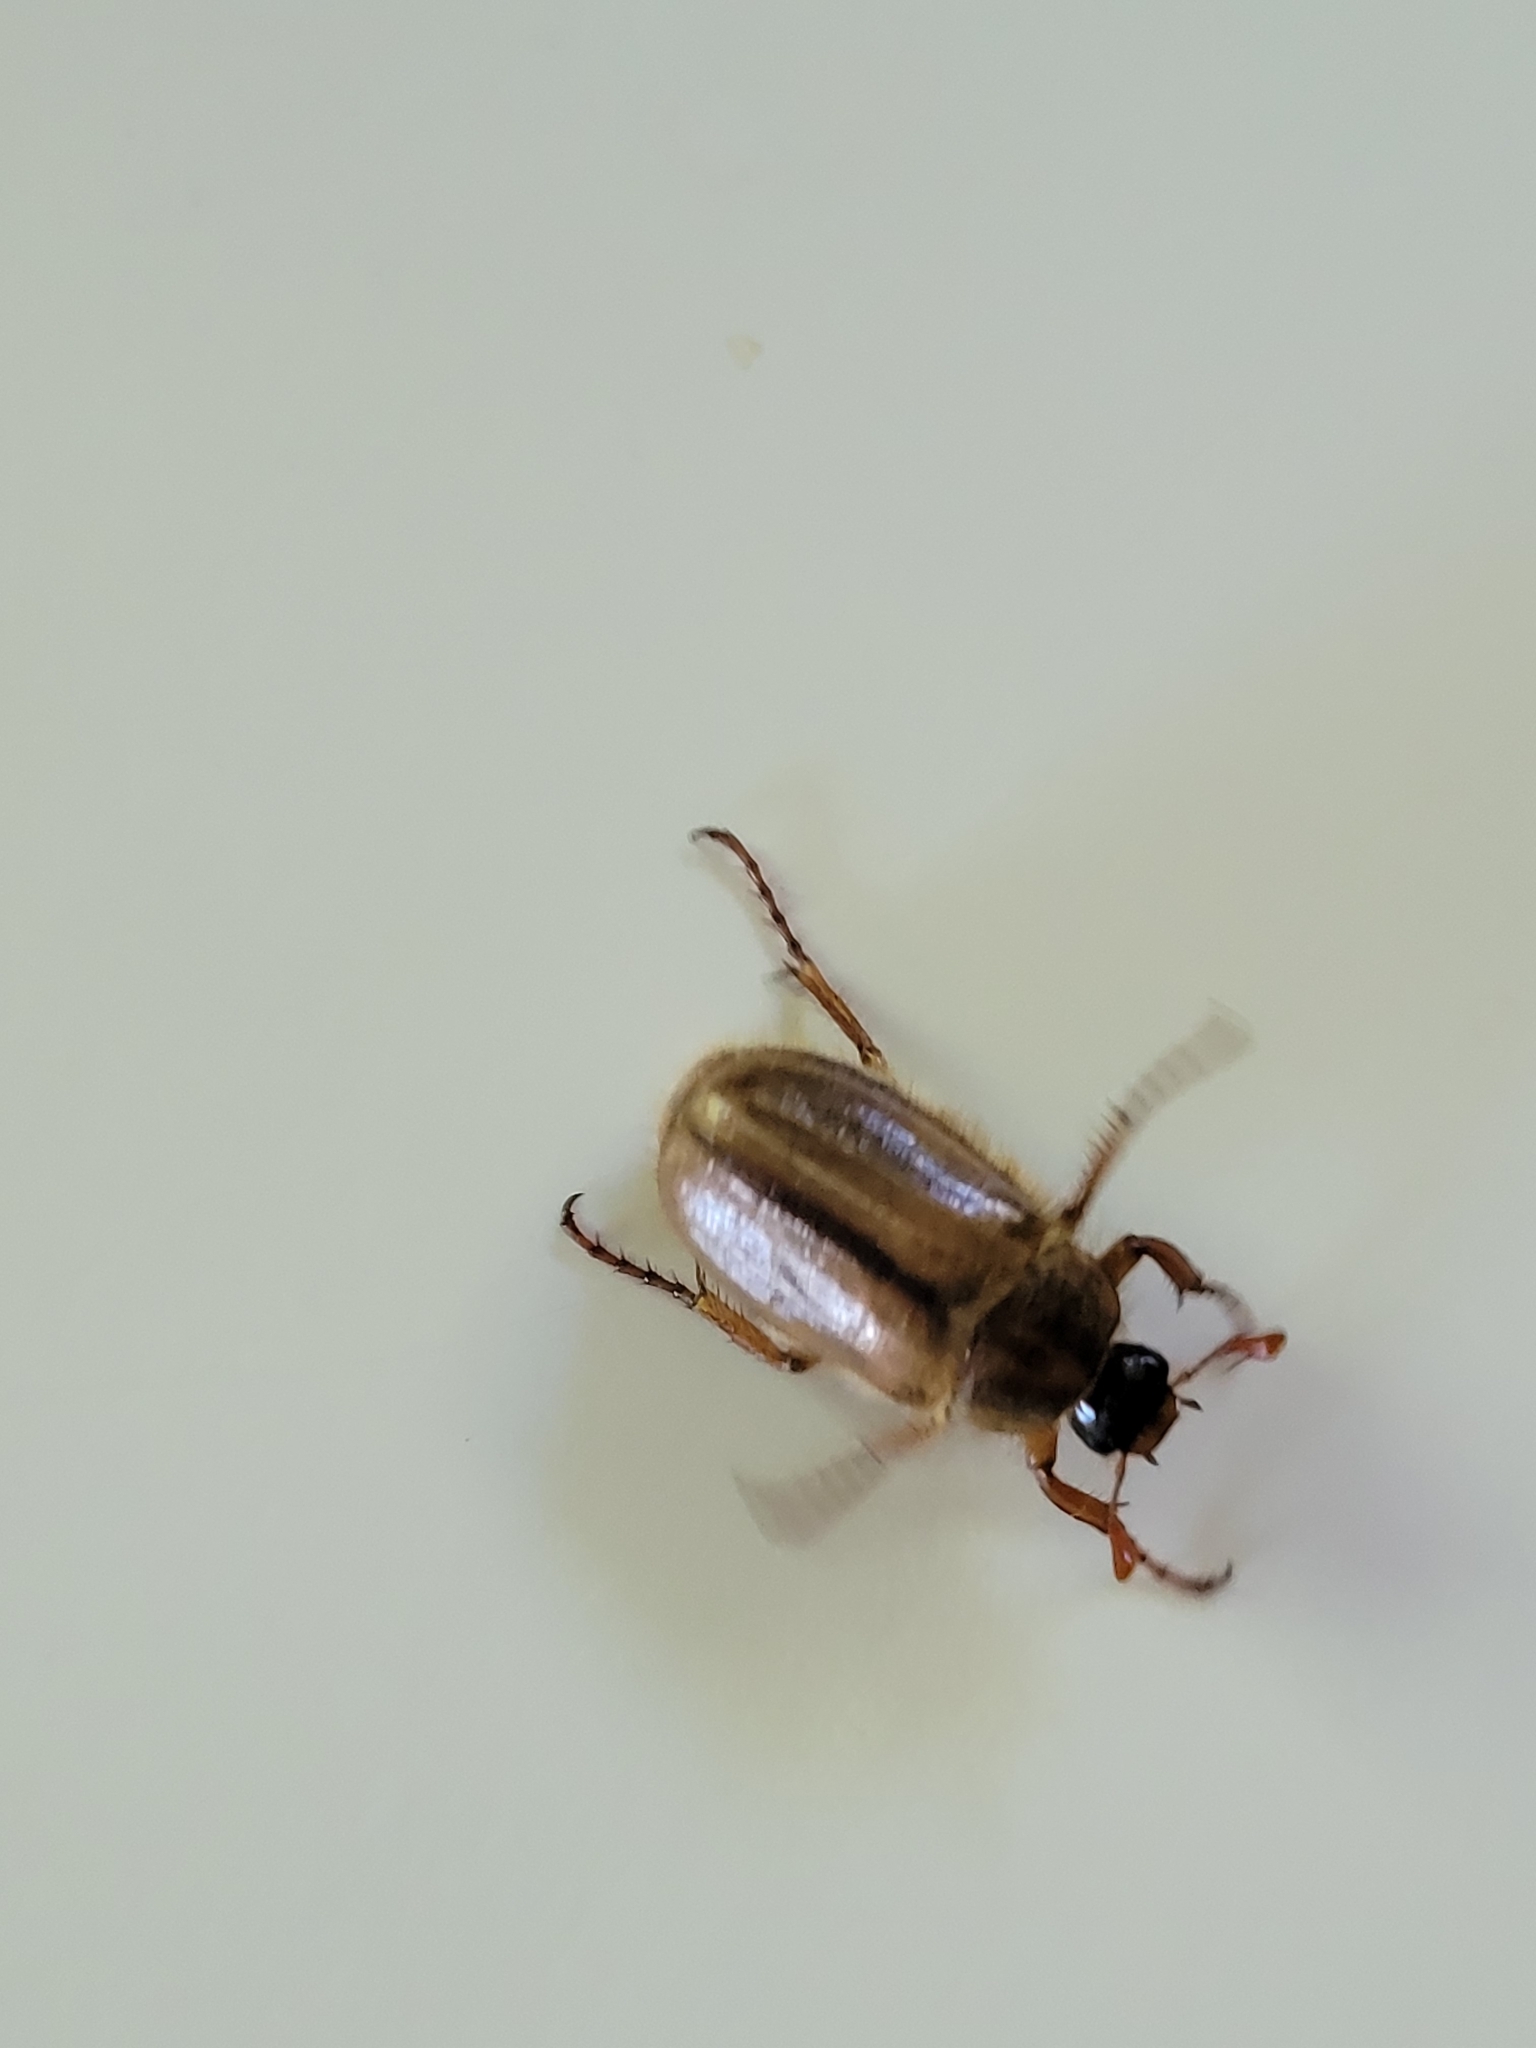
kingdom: Animalia
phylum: Arthropoda
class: Insecta
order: Coleoptera
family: Scarabaeidae
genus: Amphimallon
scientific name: Amphimallon solstitiale
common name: Summer chafer
